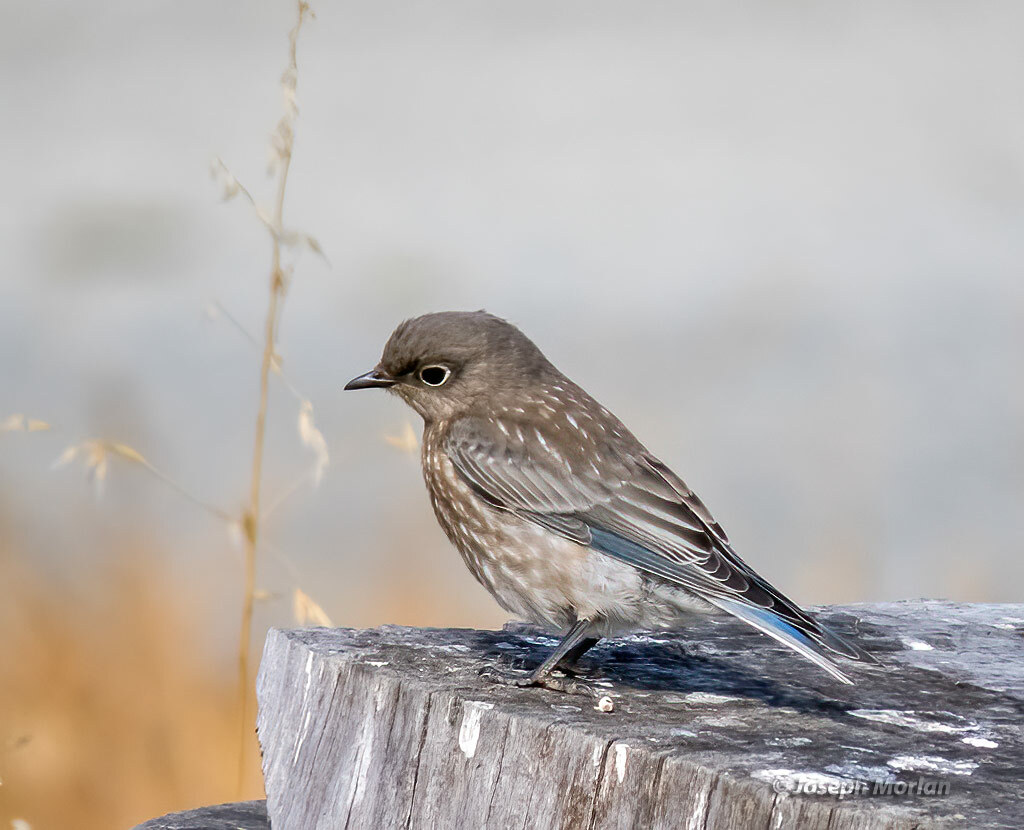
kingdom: Animalia
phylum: Chordata
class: Aves
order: Passeriformes
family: Turdidae
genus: Sialia
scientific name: Sialia mexicana
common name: Western bluebird
